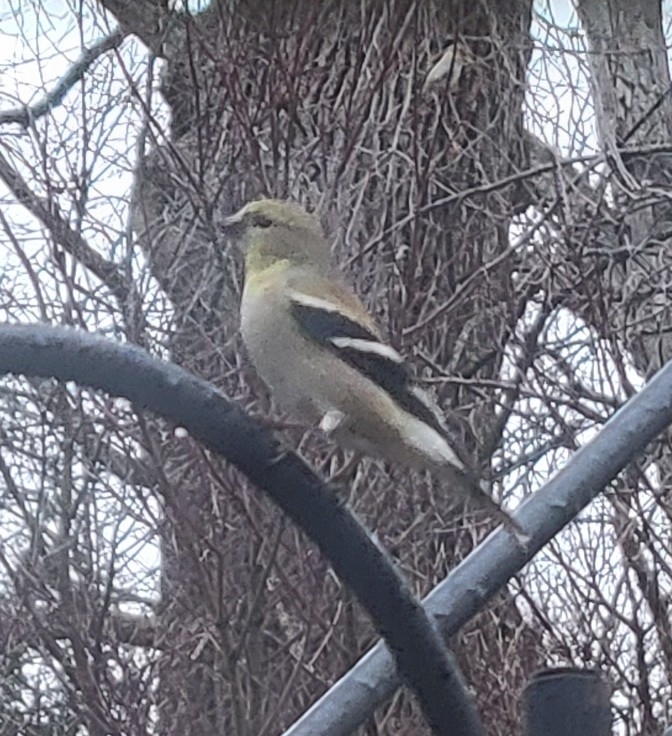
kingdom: Animalia
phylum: Chordata
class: Aves
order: Passeriformes
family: Fringillidae
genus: Spinus
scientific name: Spinus tristis
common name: American goldfinch
